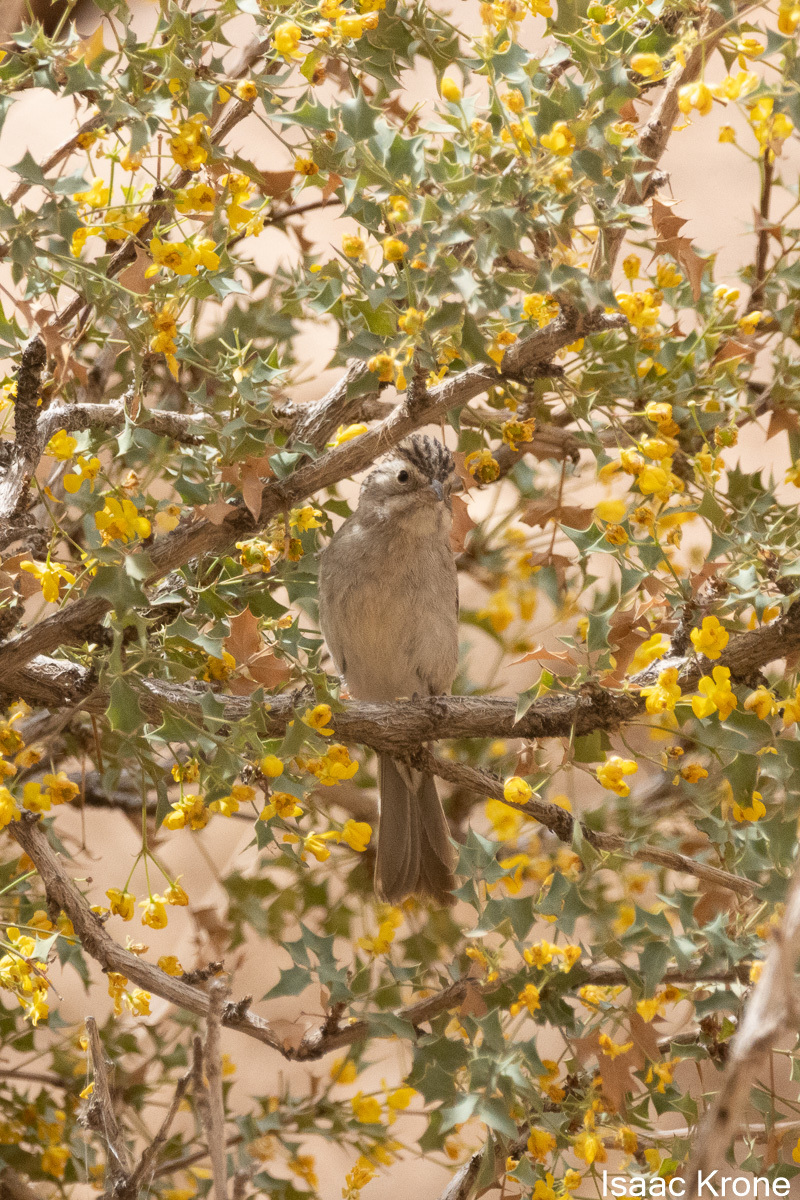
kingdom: Animalia
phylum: Chordata
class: Aves
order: Passeriformes
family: Passerellidae
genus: Spizella
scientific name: Spizella breweri
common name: Brewer's sparrow
